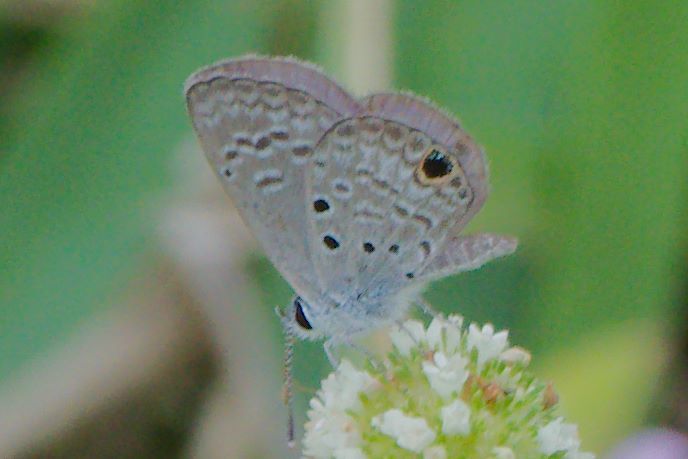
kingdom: Animalia
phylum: Arthropoda
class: Insecta
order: Lepidoptera
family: Lycaenidae
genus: Hemiargus
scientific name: Hemiargus ceraunus
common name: Ceraunus blue
